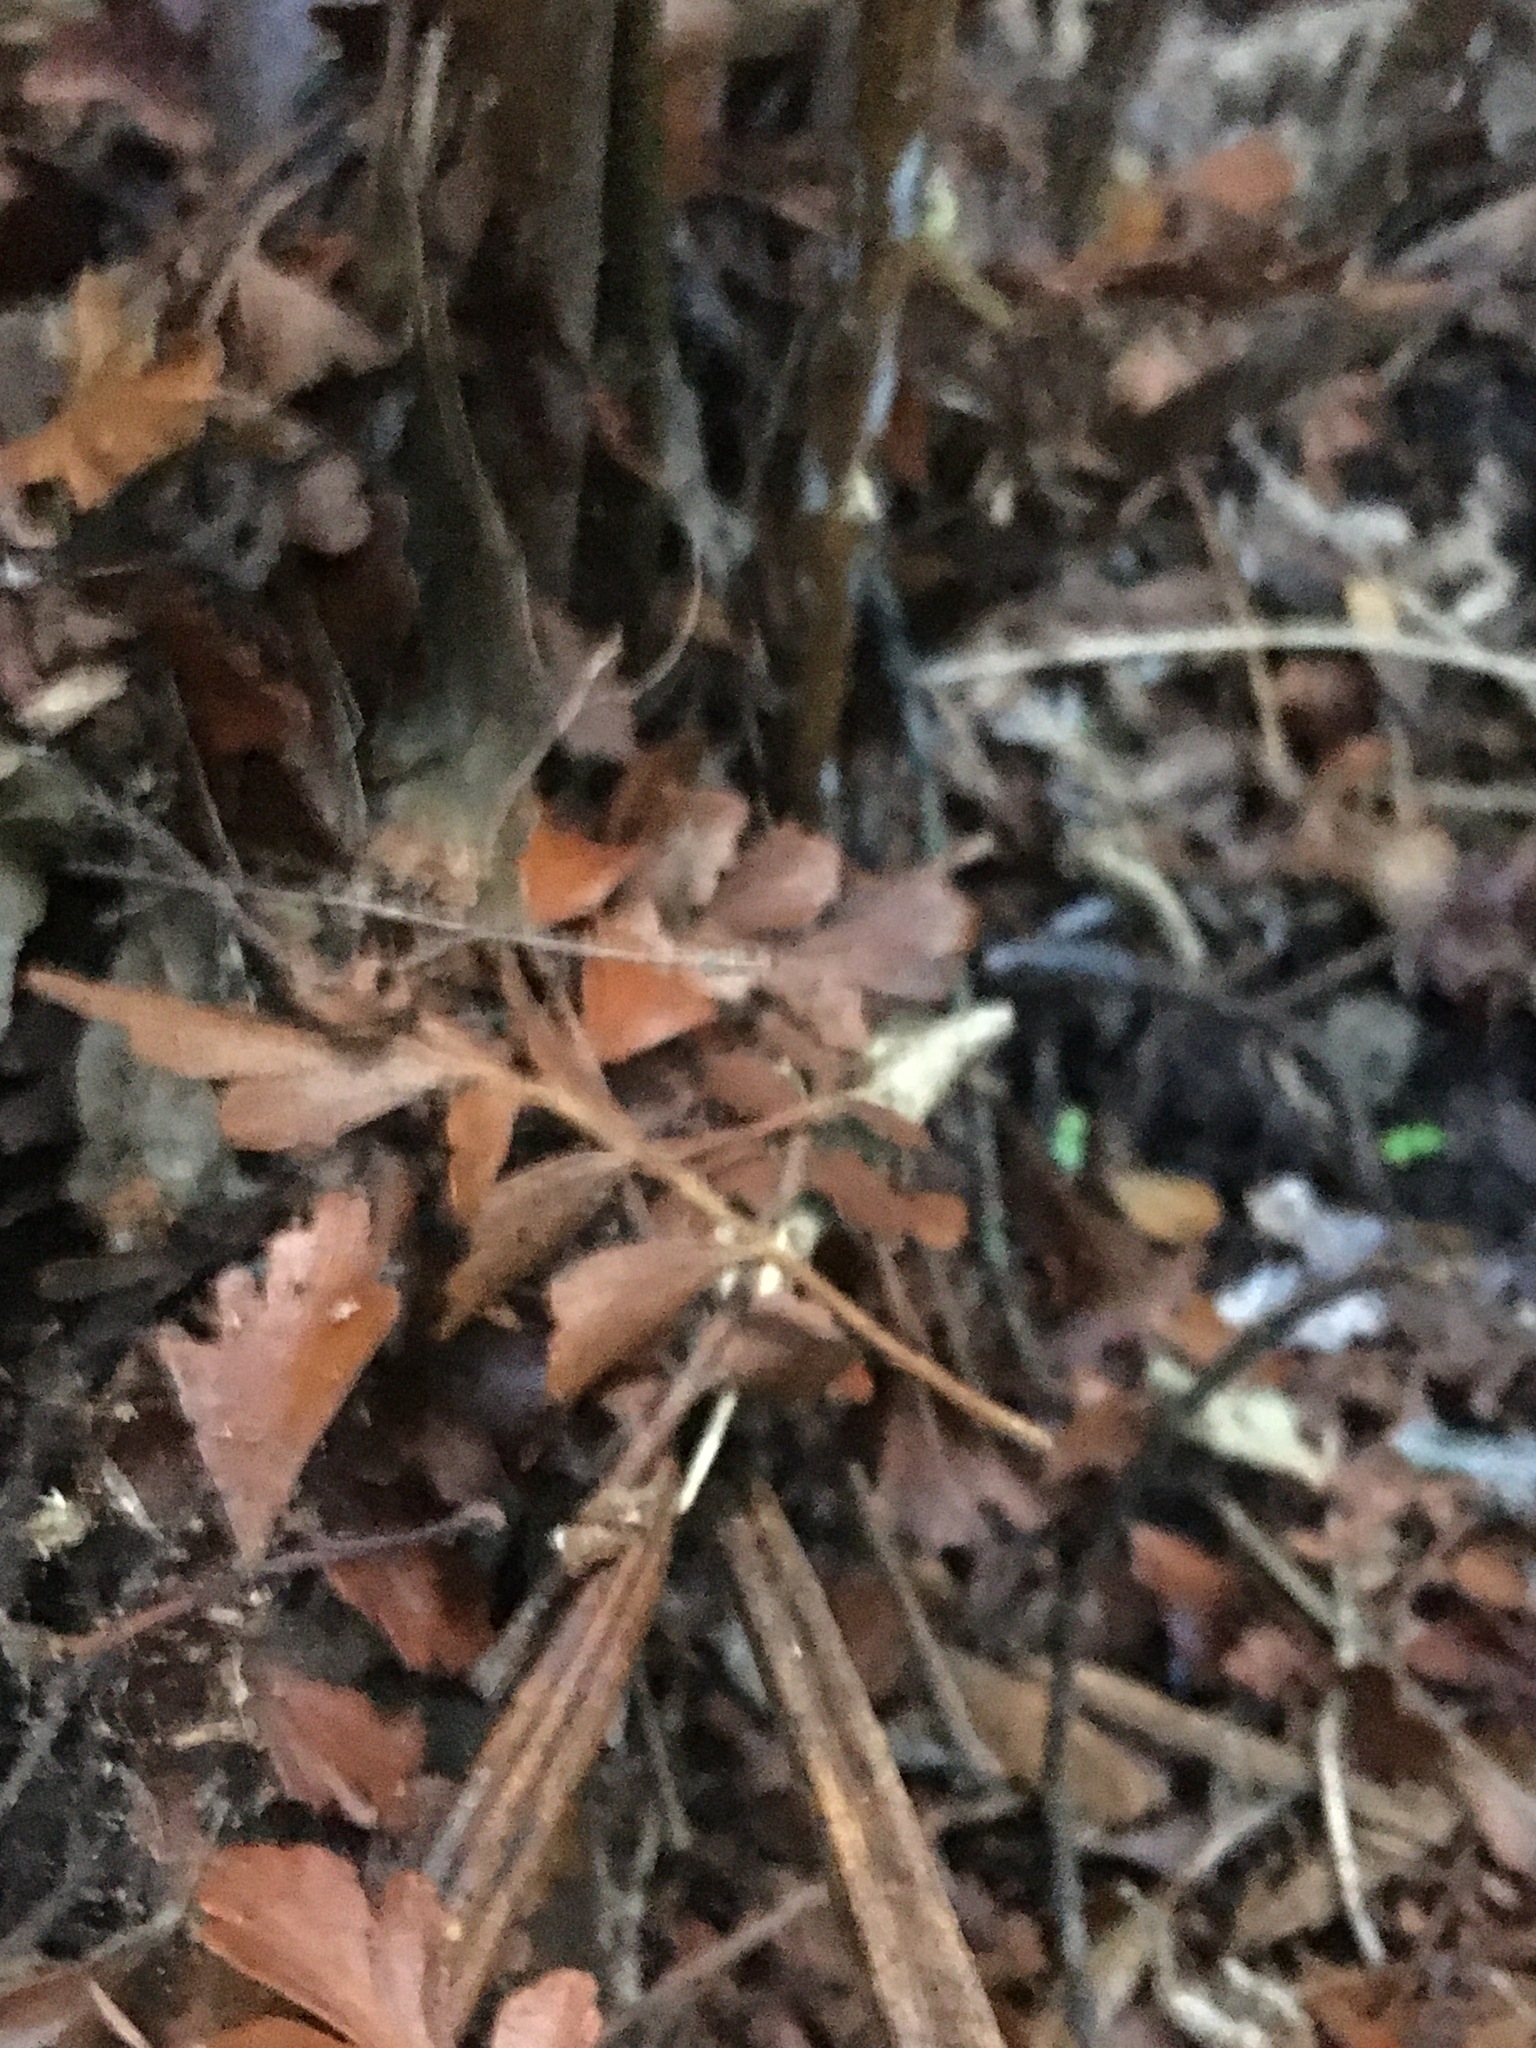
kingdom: Plantae
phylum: Tracheophyta
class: Pinopsida
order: Pinales
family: Phyllocladaceae
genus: Phyllocladus
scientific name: Phyllocladus trichomanoides
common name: Celery pine
